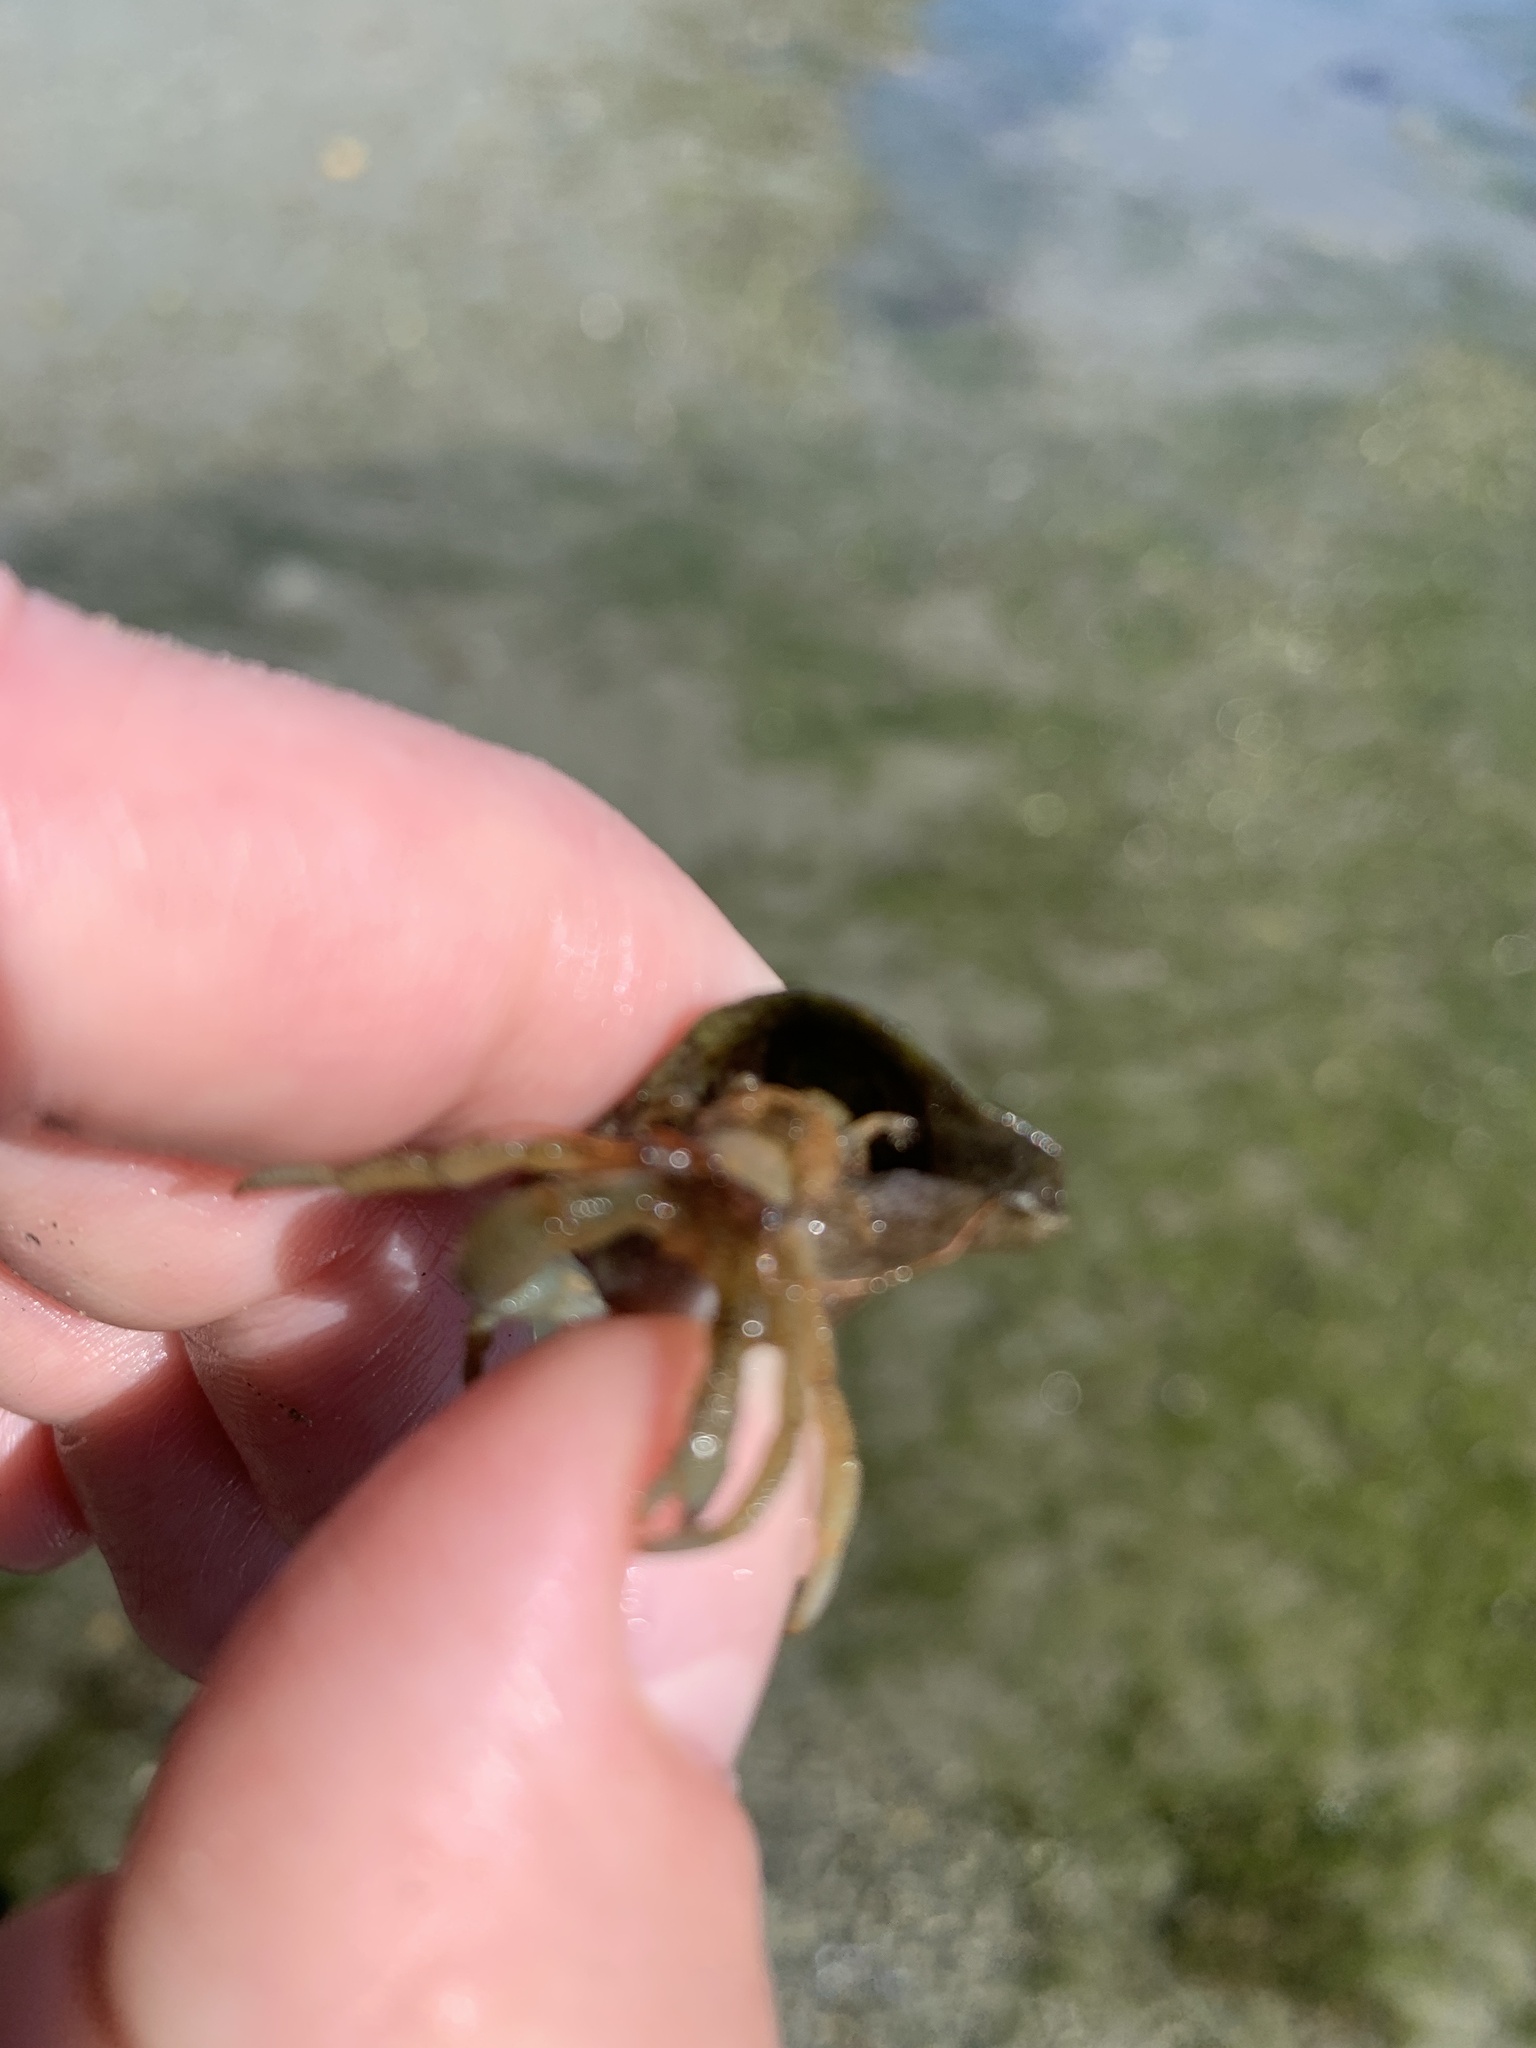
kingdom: Animalia
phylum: Arthropoda
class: Malacostraca
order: Decapoda
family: Paguridae
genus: Pagurus
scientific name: Pagurus granosimanus
